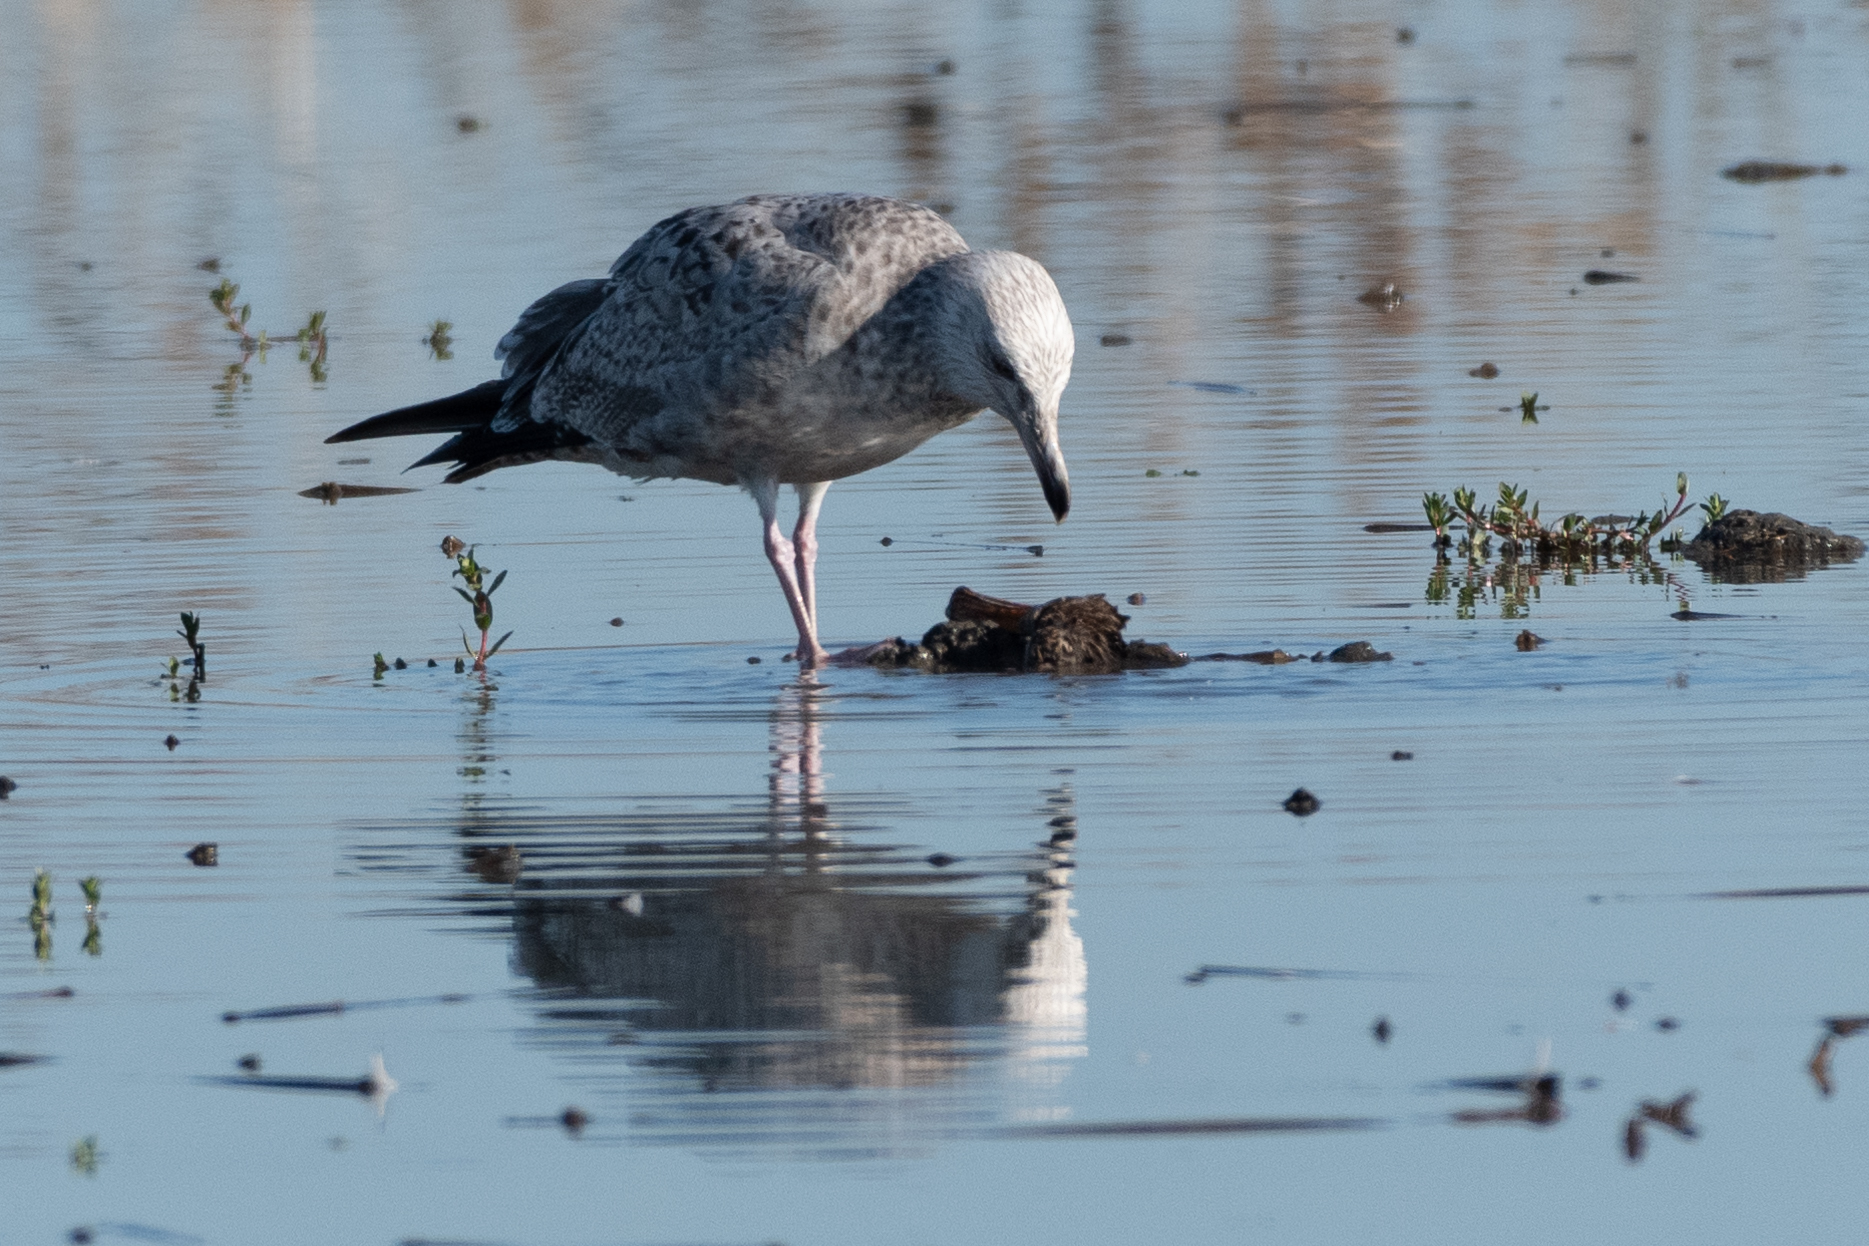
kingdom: Animalia
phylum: Chordata
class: Aves
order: Charadriiformes
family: Laridae
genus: Larus
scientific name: Larus argentatus
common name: Herring gull
